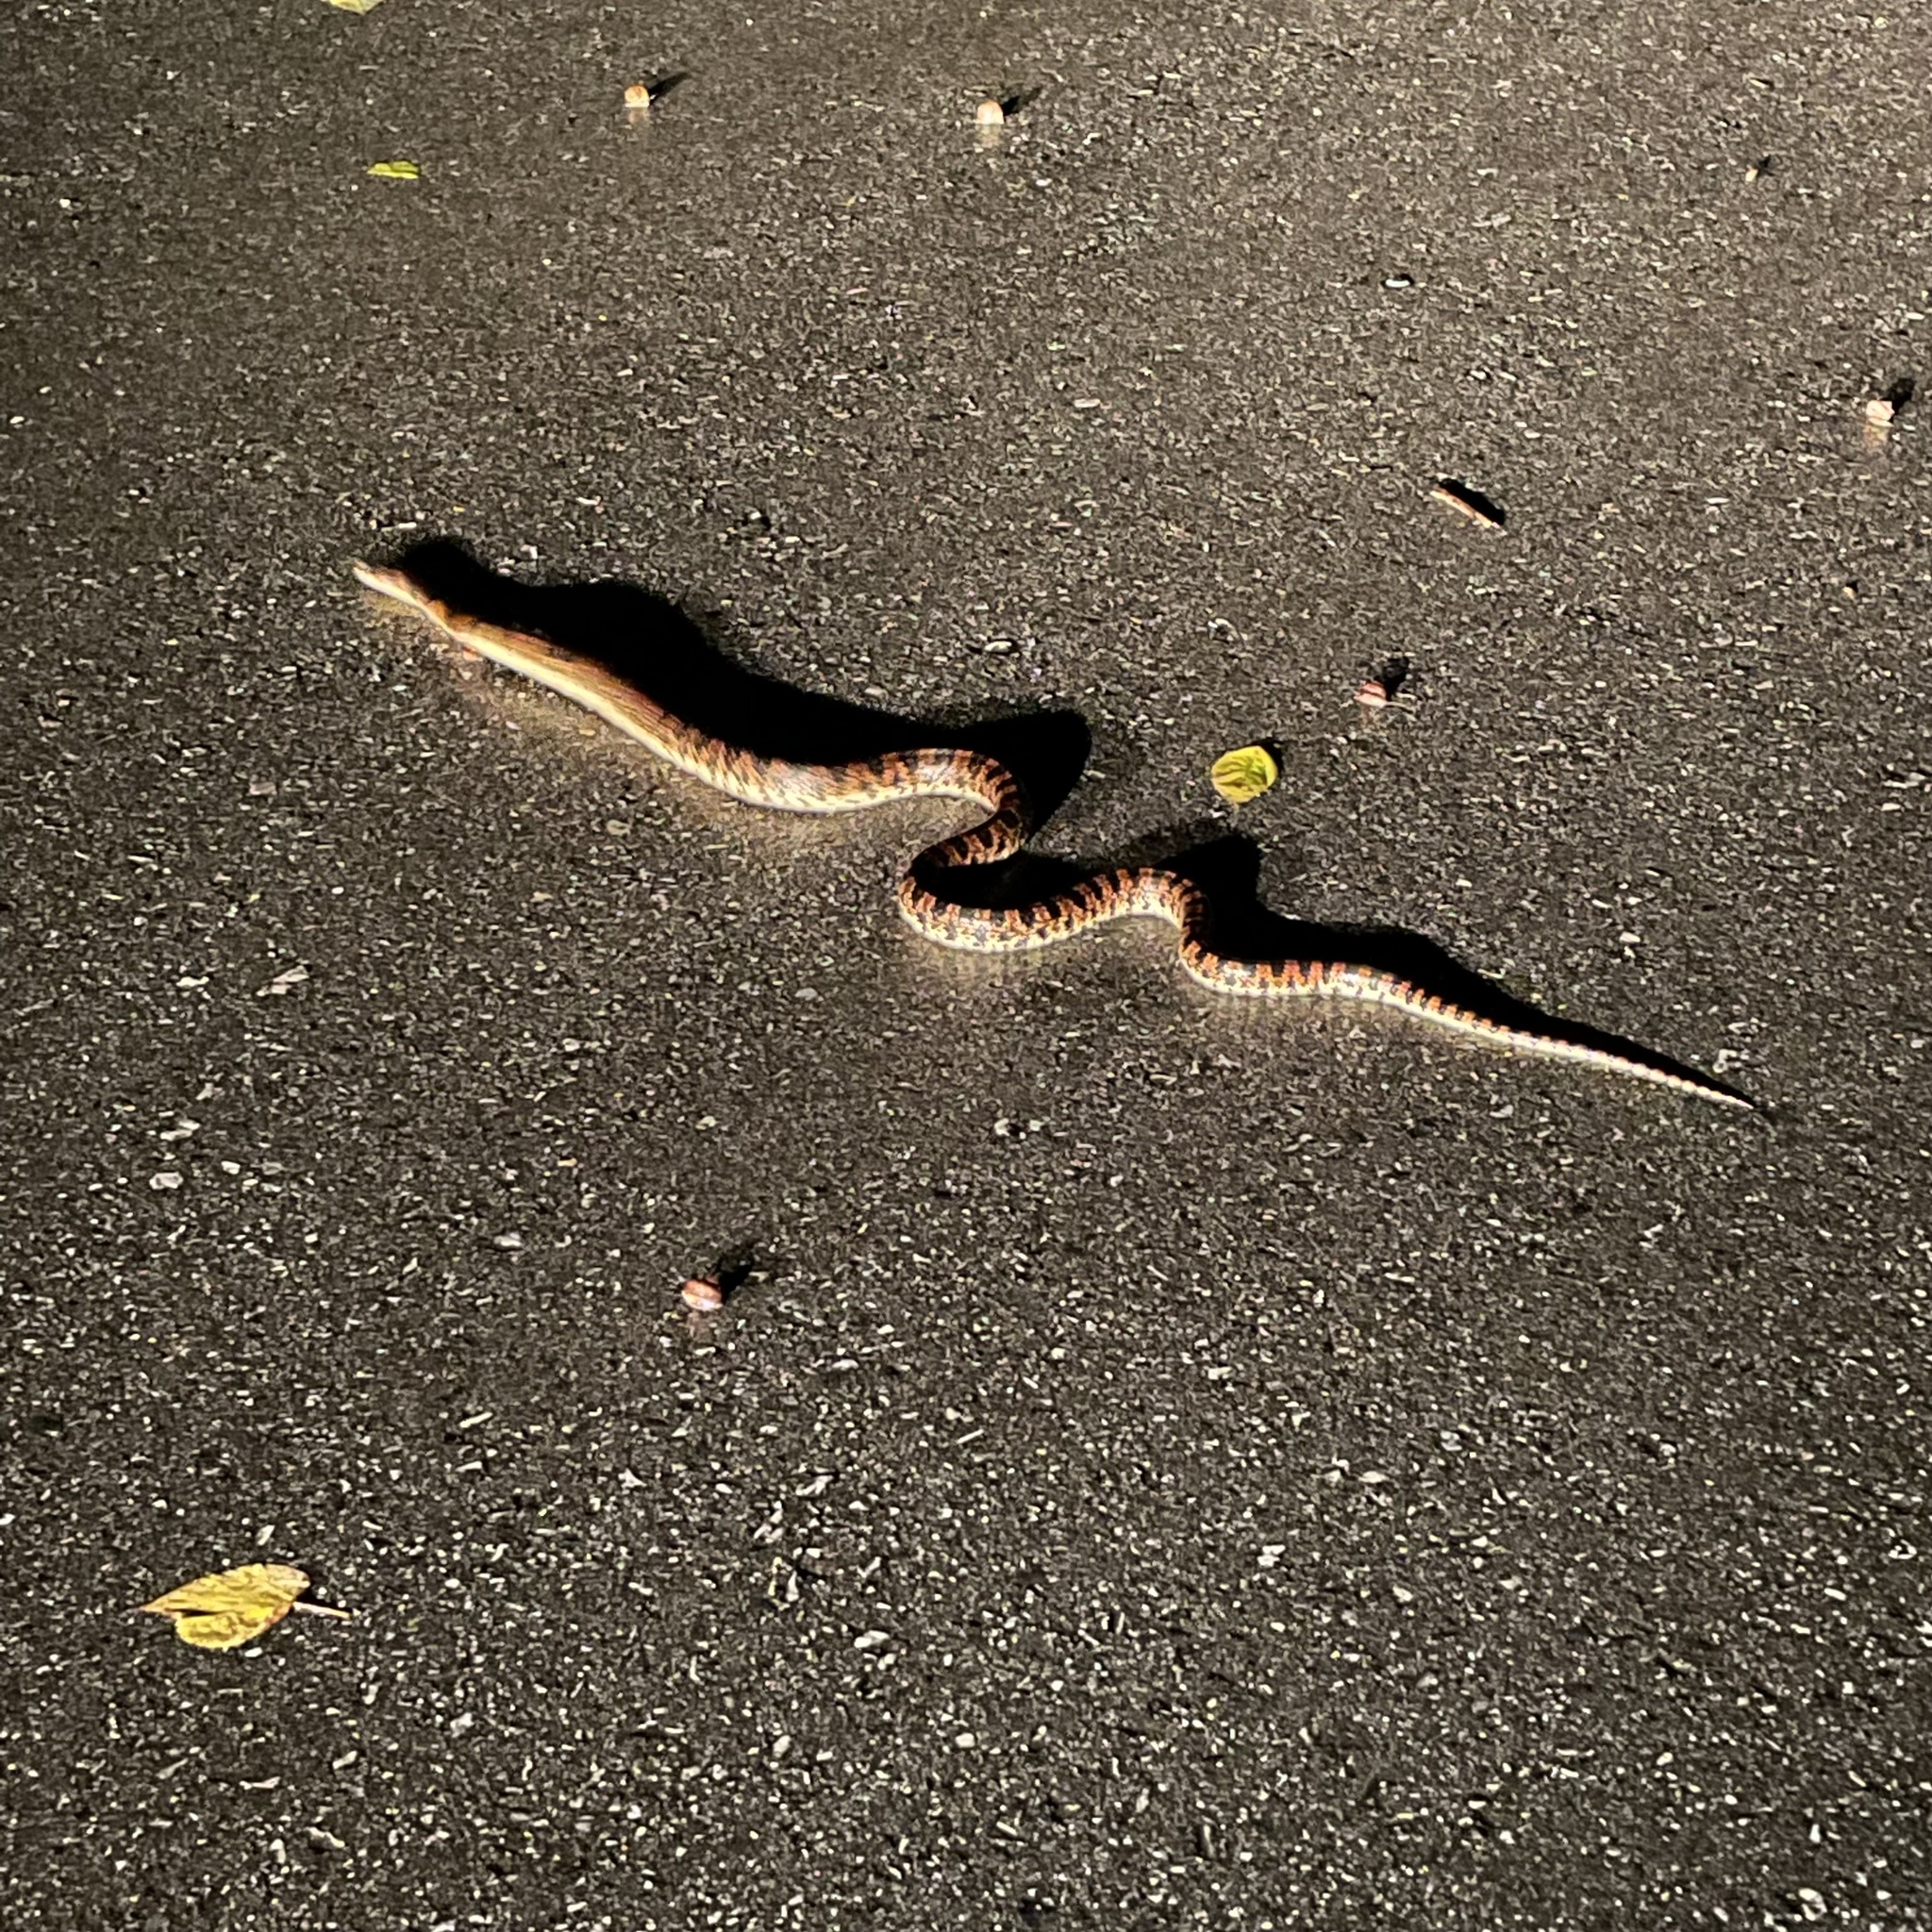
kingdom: Animalia
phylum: Chordata
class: Squamata
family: Colubridae
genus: Lycodon
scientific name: Lycodon semicarinatus
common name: Loo-choo big-tooth snake
